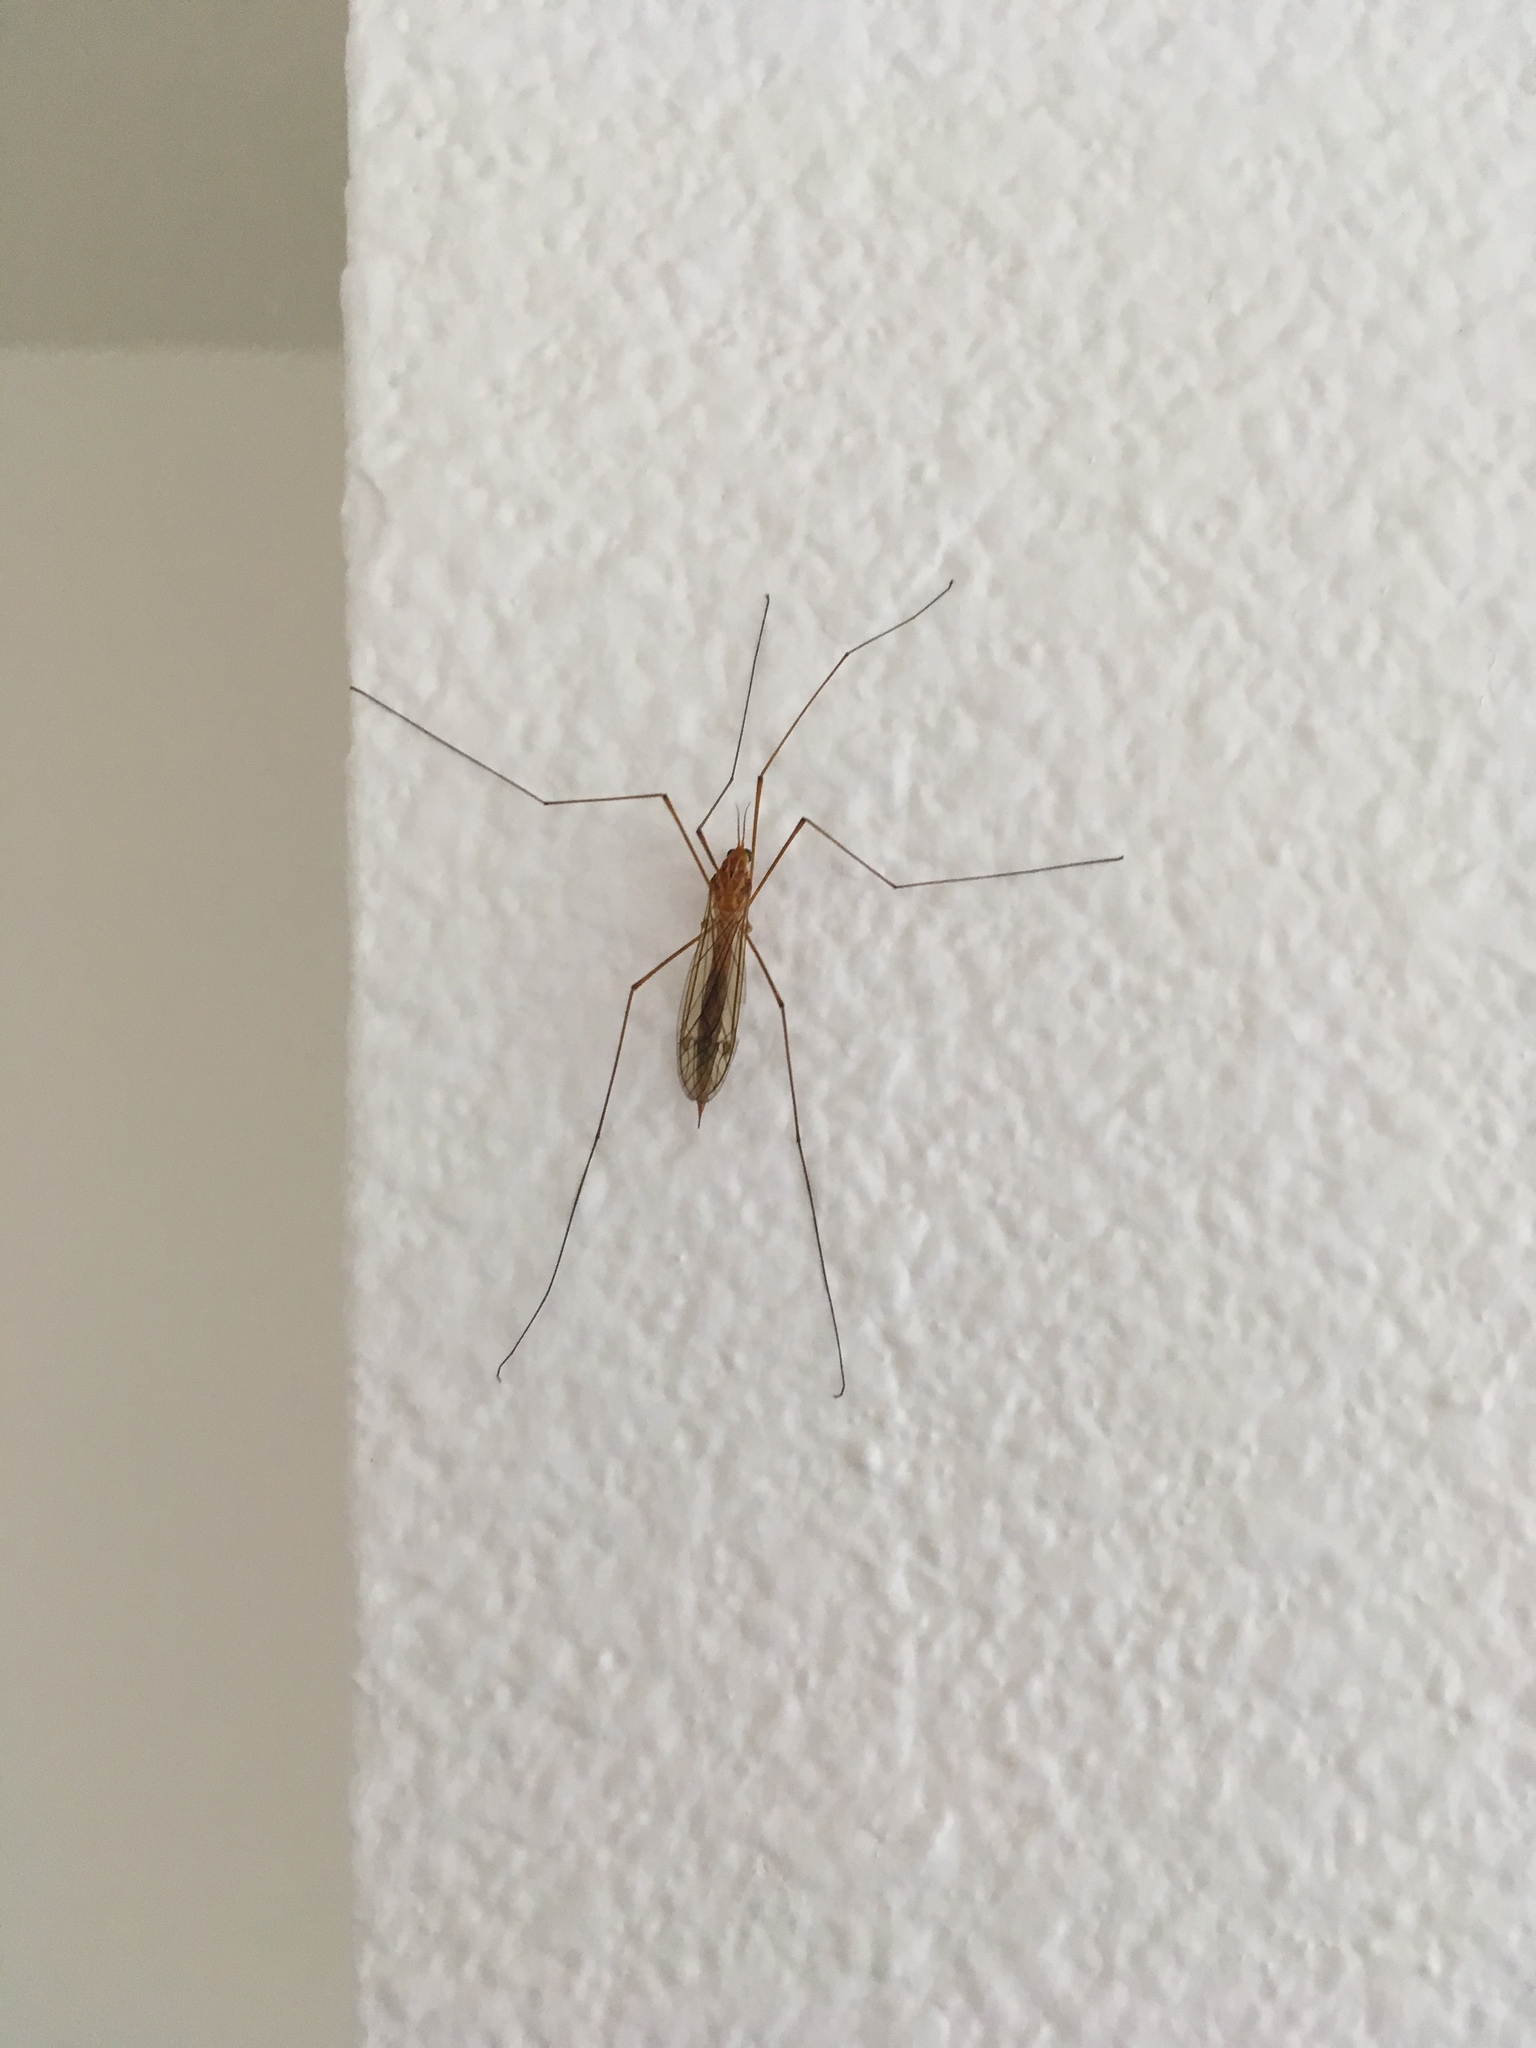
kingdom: Animalia
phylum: Arthropoda
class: Insecta
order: Diptera
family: Tipulidae
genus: Nephrotoma
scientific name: Nephrotoma
